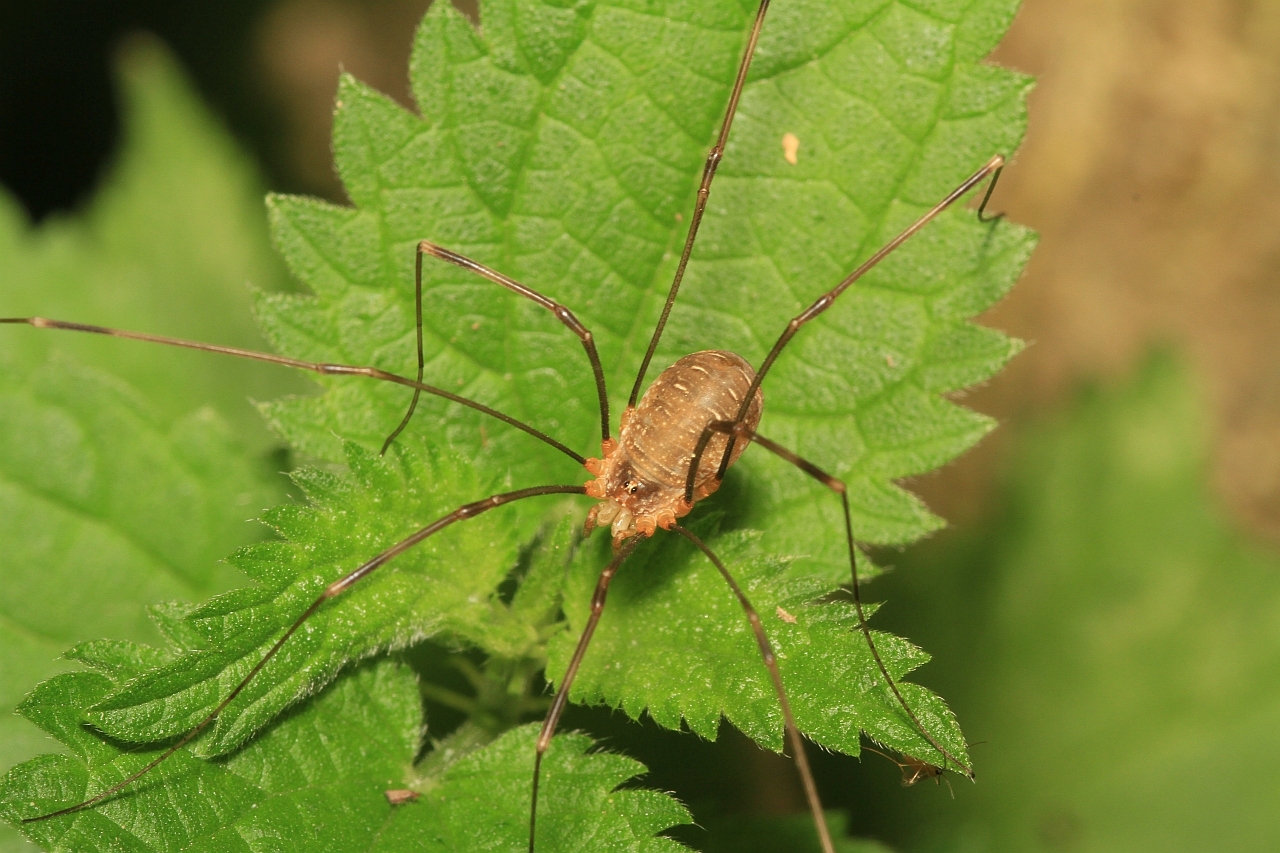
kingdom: Animalia
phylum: Arthropoda
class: Arachnida
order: Opiliones
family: Phalangiidae
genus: Opilio
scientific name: Opilio canestrinii
